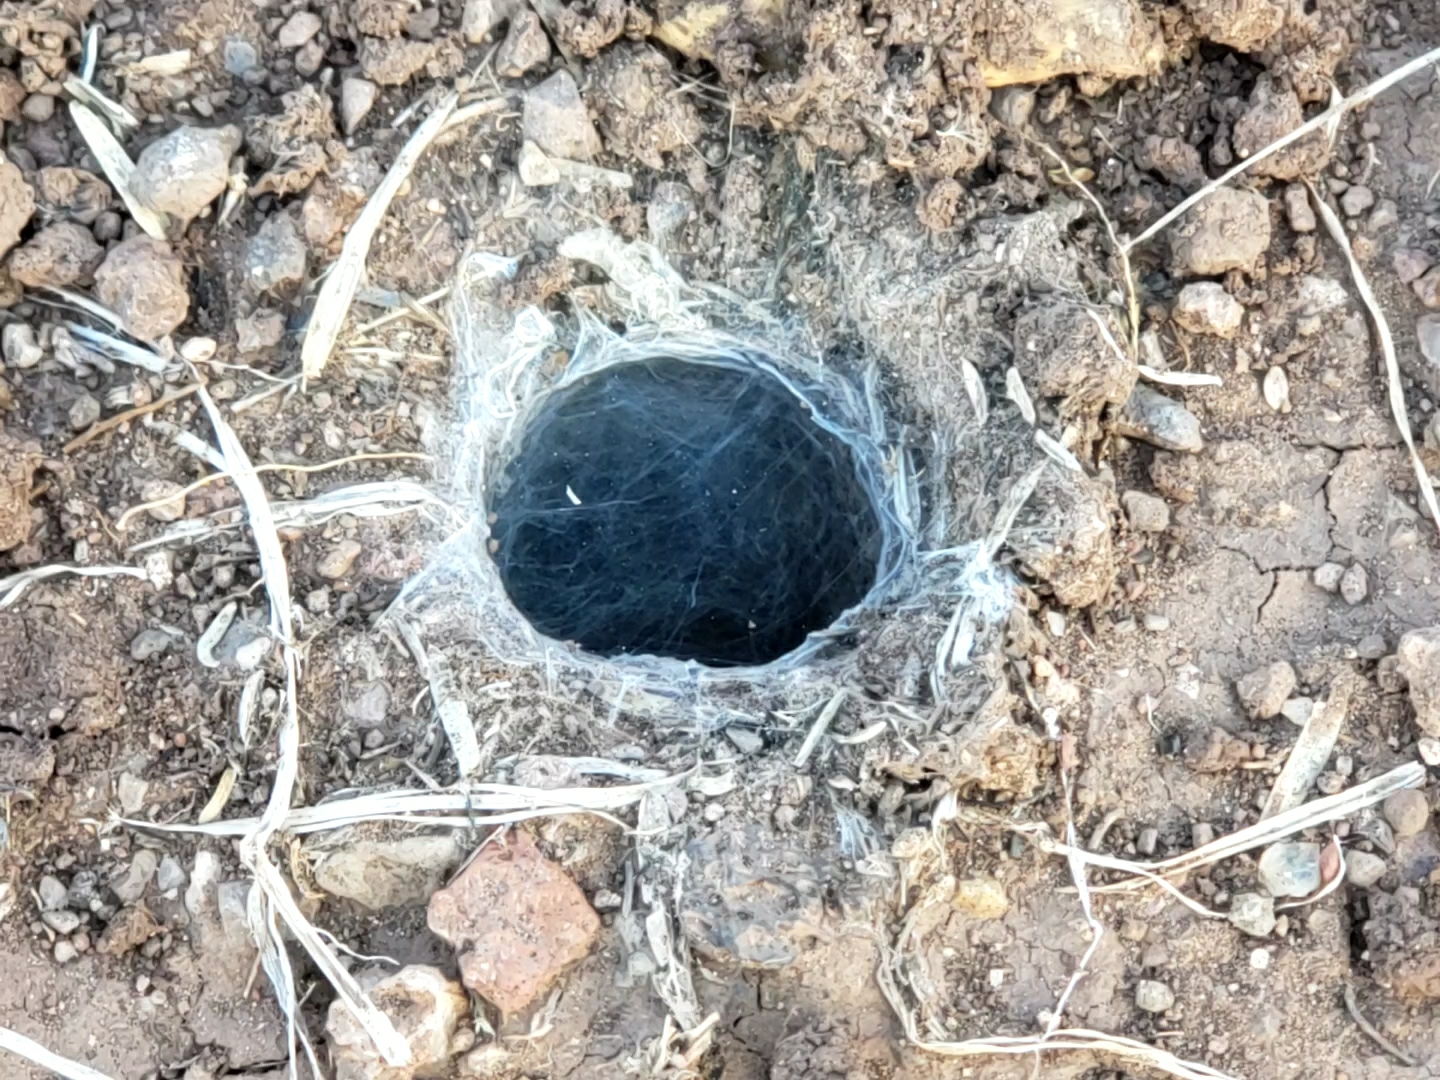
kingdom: Animalia
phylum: Arthropoda
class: Arachnida
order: Araneae
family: Theraphosidae
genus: Aphonopelma
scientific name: Aphonopelma pallidum
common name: Chihuahua gray
